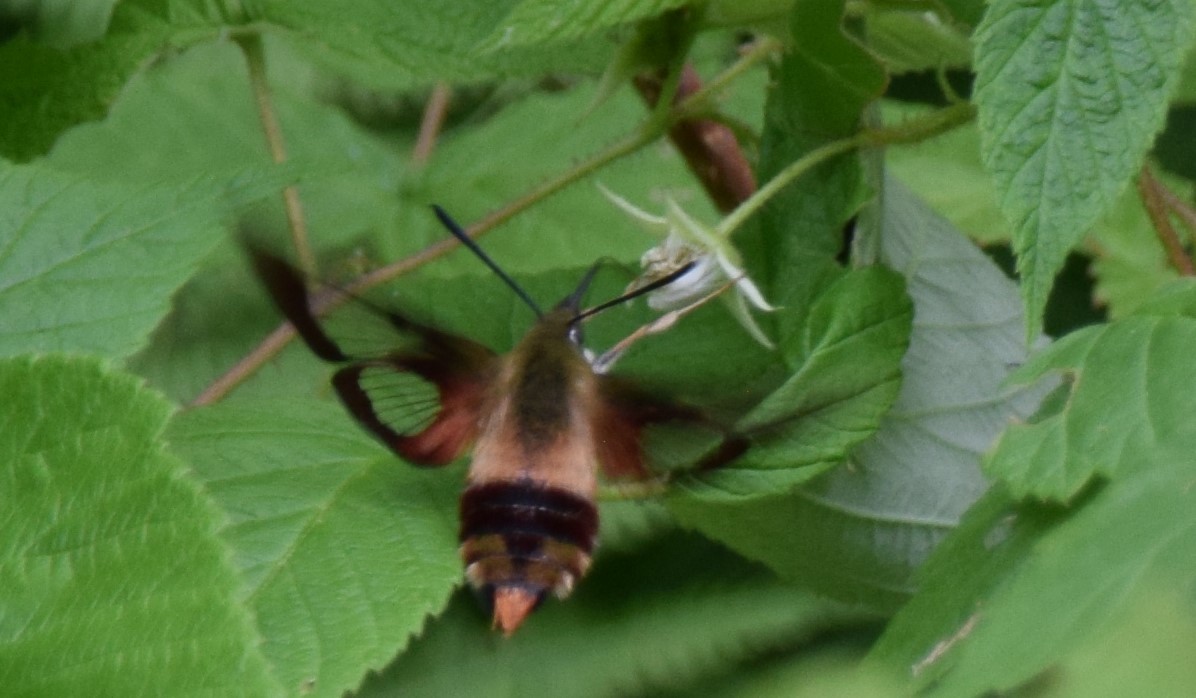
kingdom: Animalia
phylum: Arthropoda
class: Insecta
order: Lepidoptera
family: Sphingidae
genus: Hemaris
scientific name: Hemaris thysbe
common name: Common clear-wing
